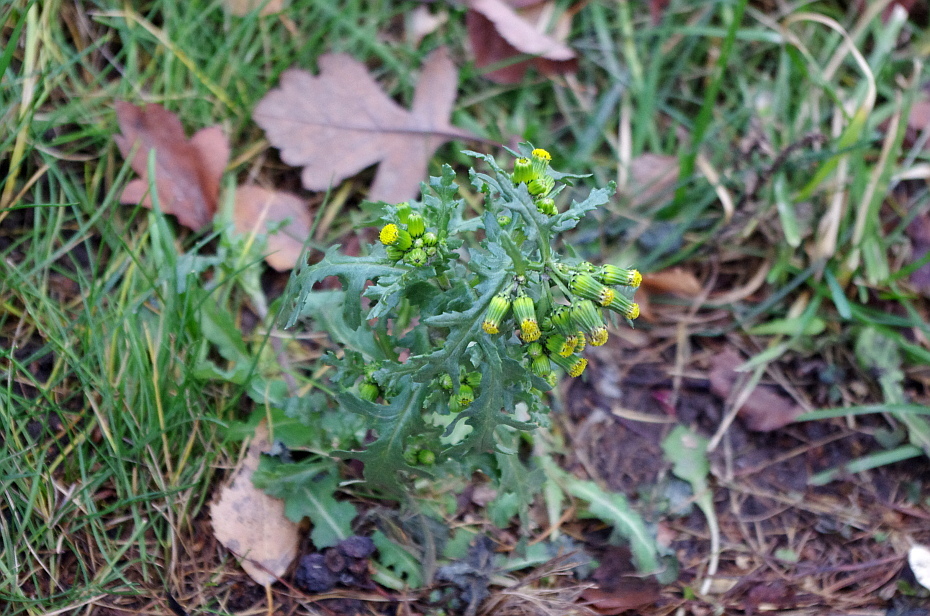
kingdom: Plantae
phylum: Tracheophyta
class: Magnoliopsida
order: Asterales
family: Asteraceae
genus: Senecio
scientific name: Senecio vulgaris
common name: Old-man-in-the-spring
